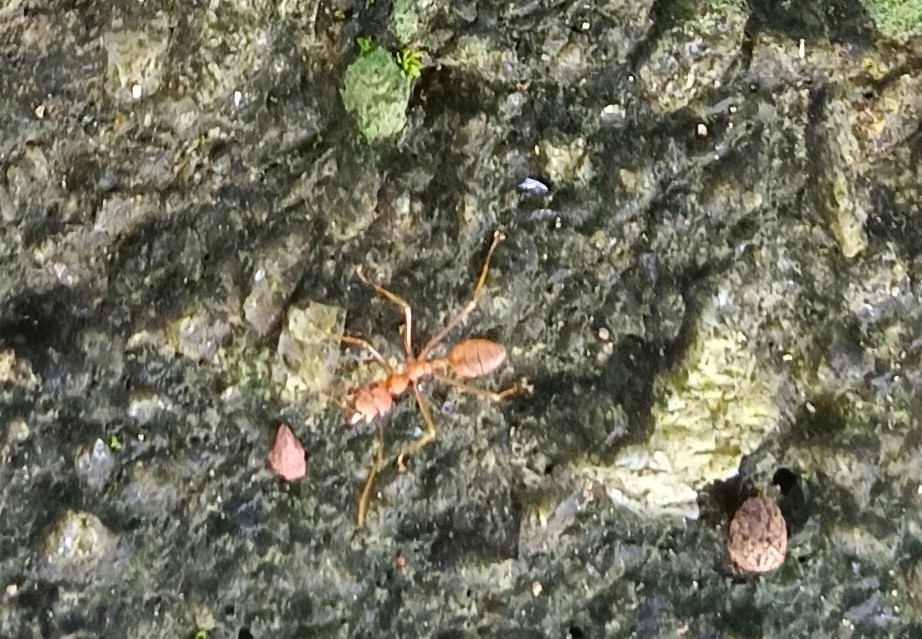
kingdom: Animalia
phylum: Arthropoda
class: Insecta
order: Hymenoptera
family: Formicidae
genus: Oecophylla
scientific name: Oecophylla smaragdina
